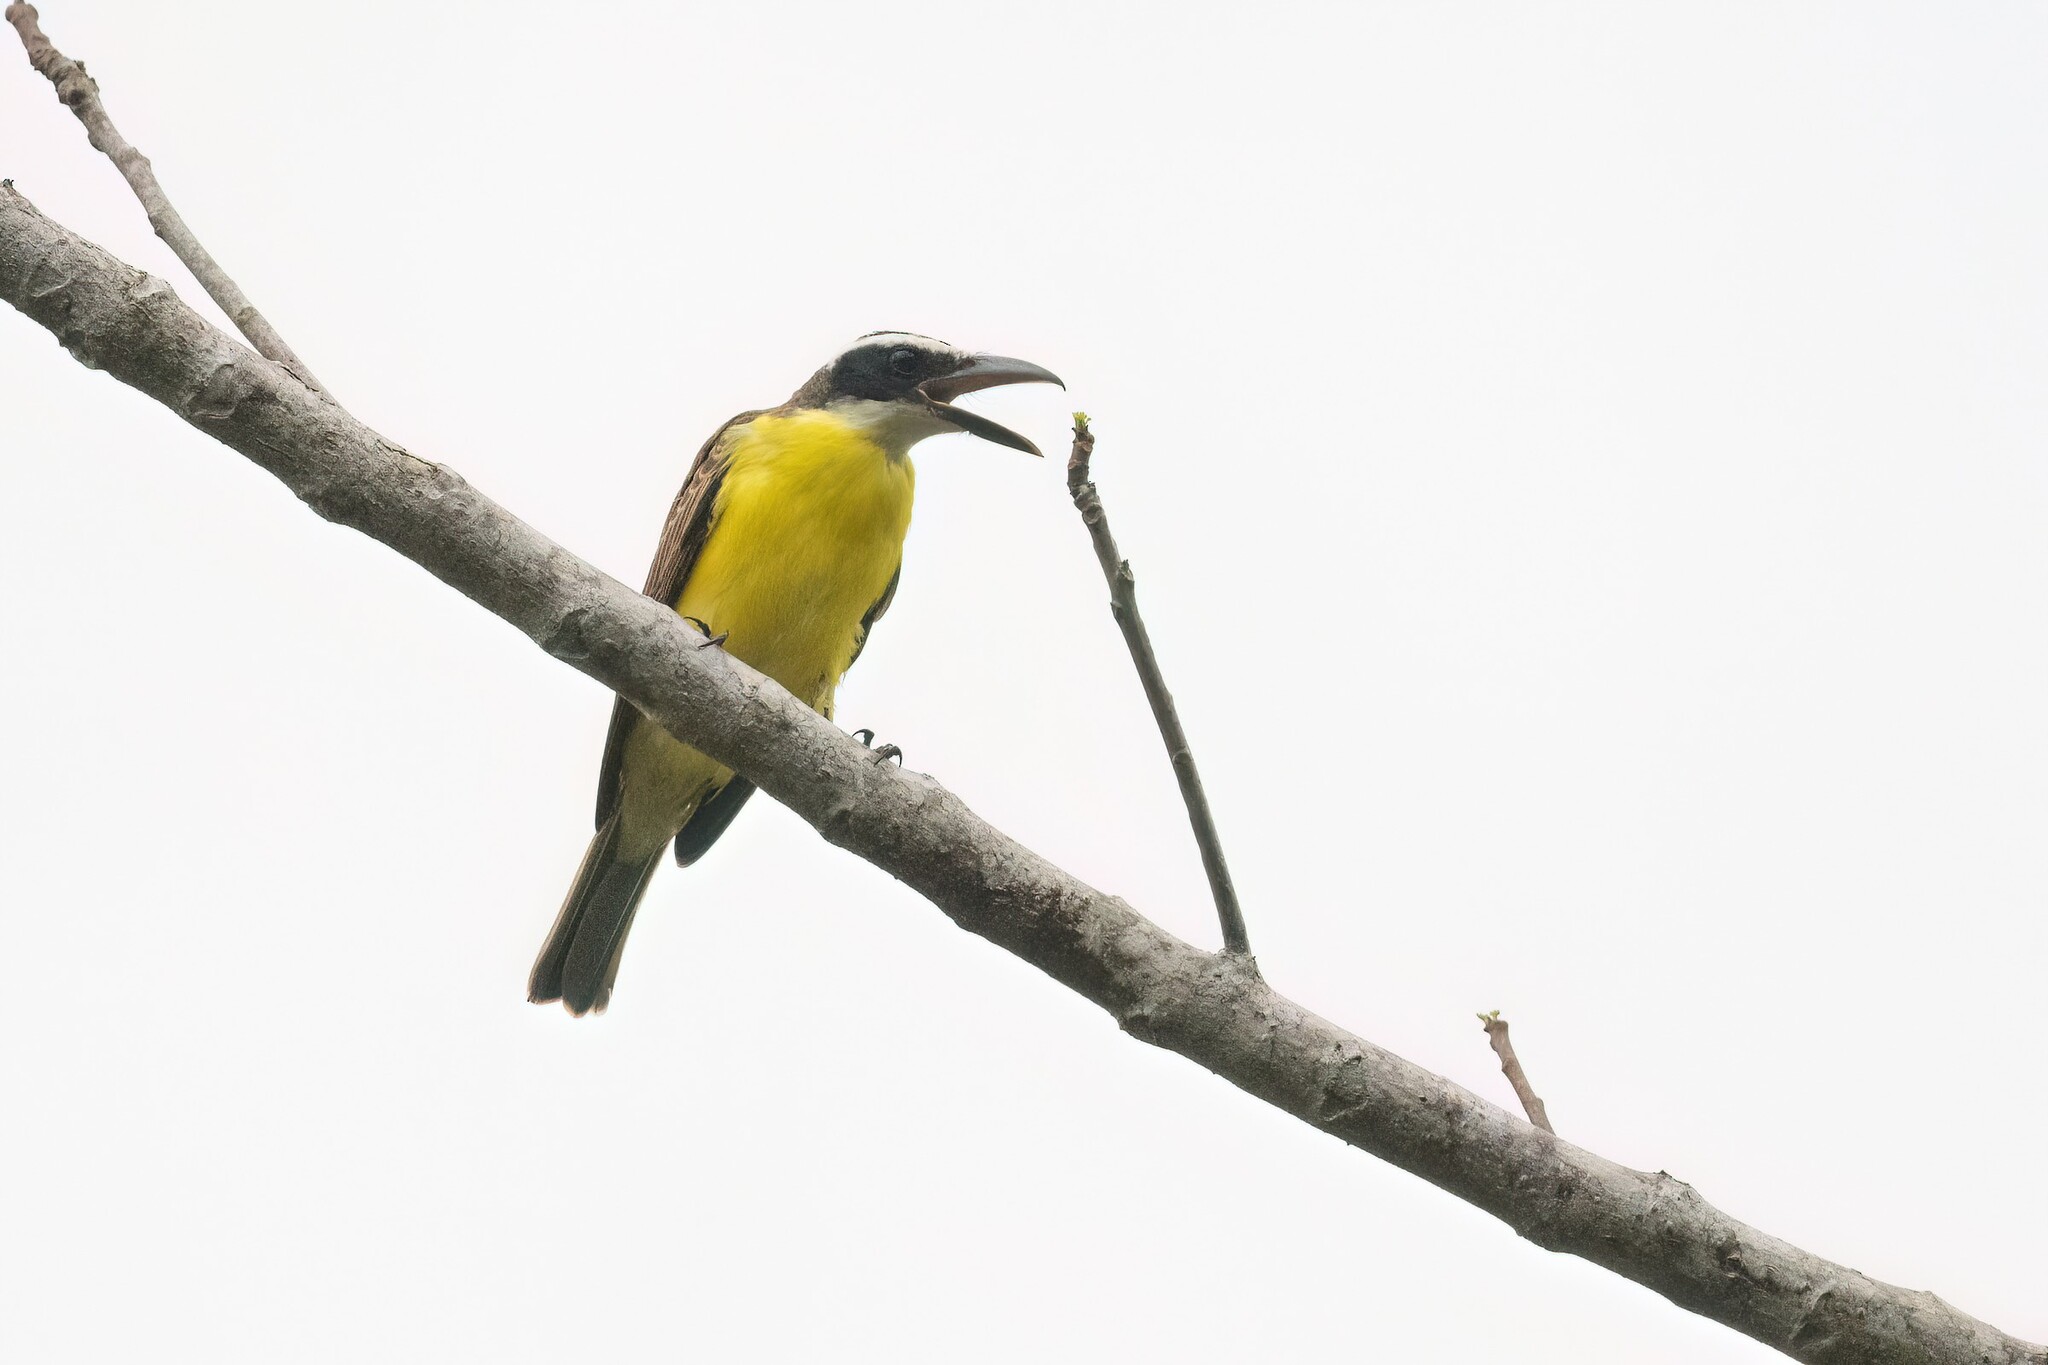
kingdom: Animalia
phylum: Chordata
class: Aves
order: Passeriformes
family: Tyrannidae
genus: Megarynchus
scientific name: Megarynchus pitangua
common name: Boat-billed flycatcher
